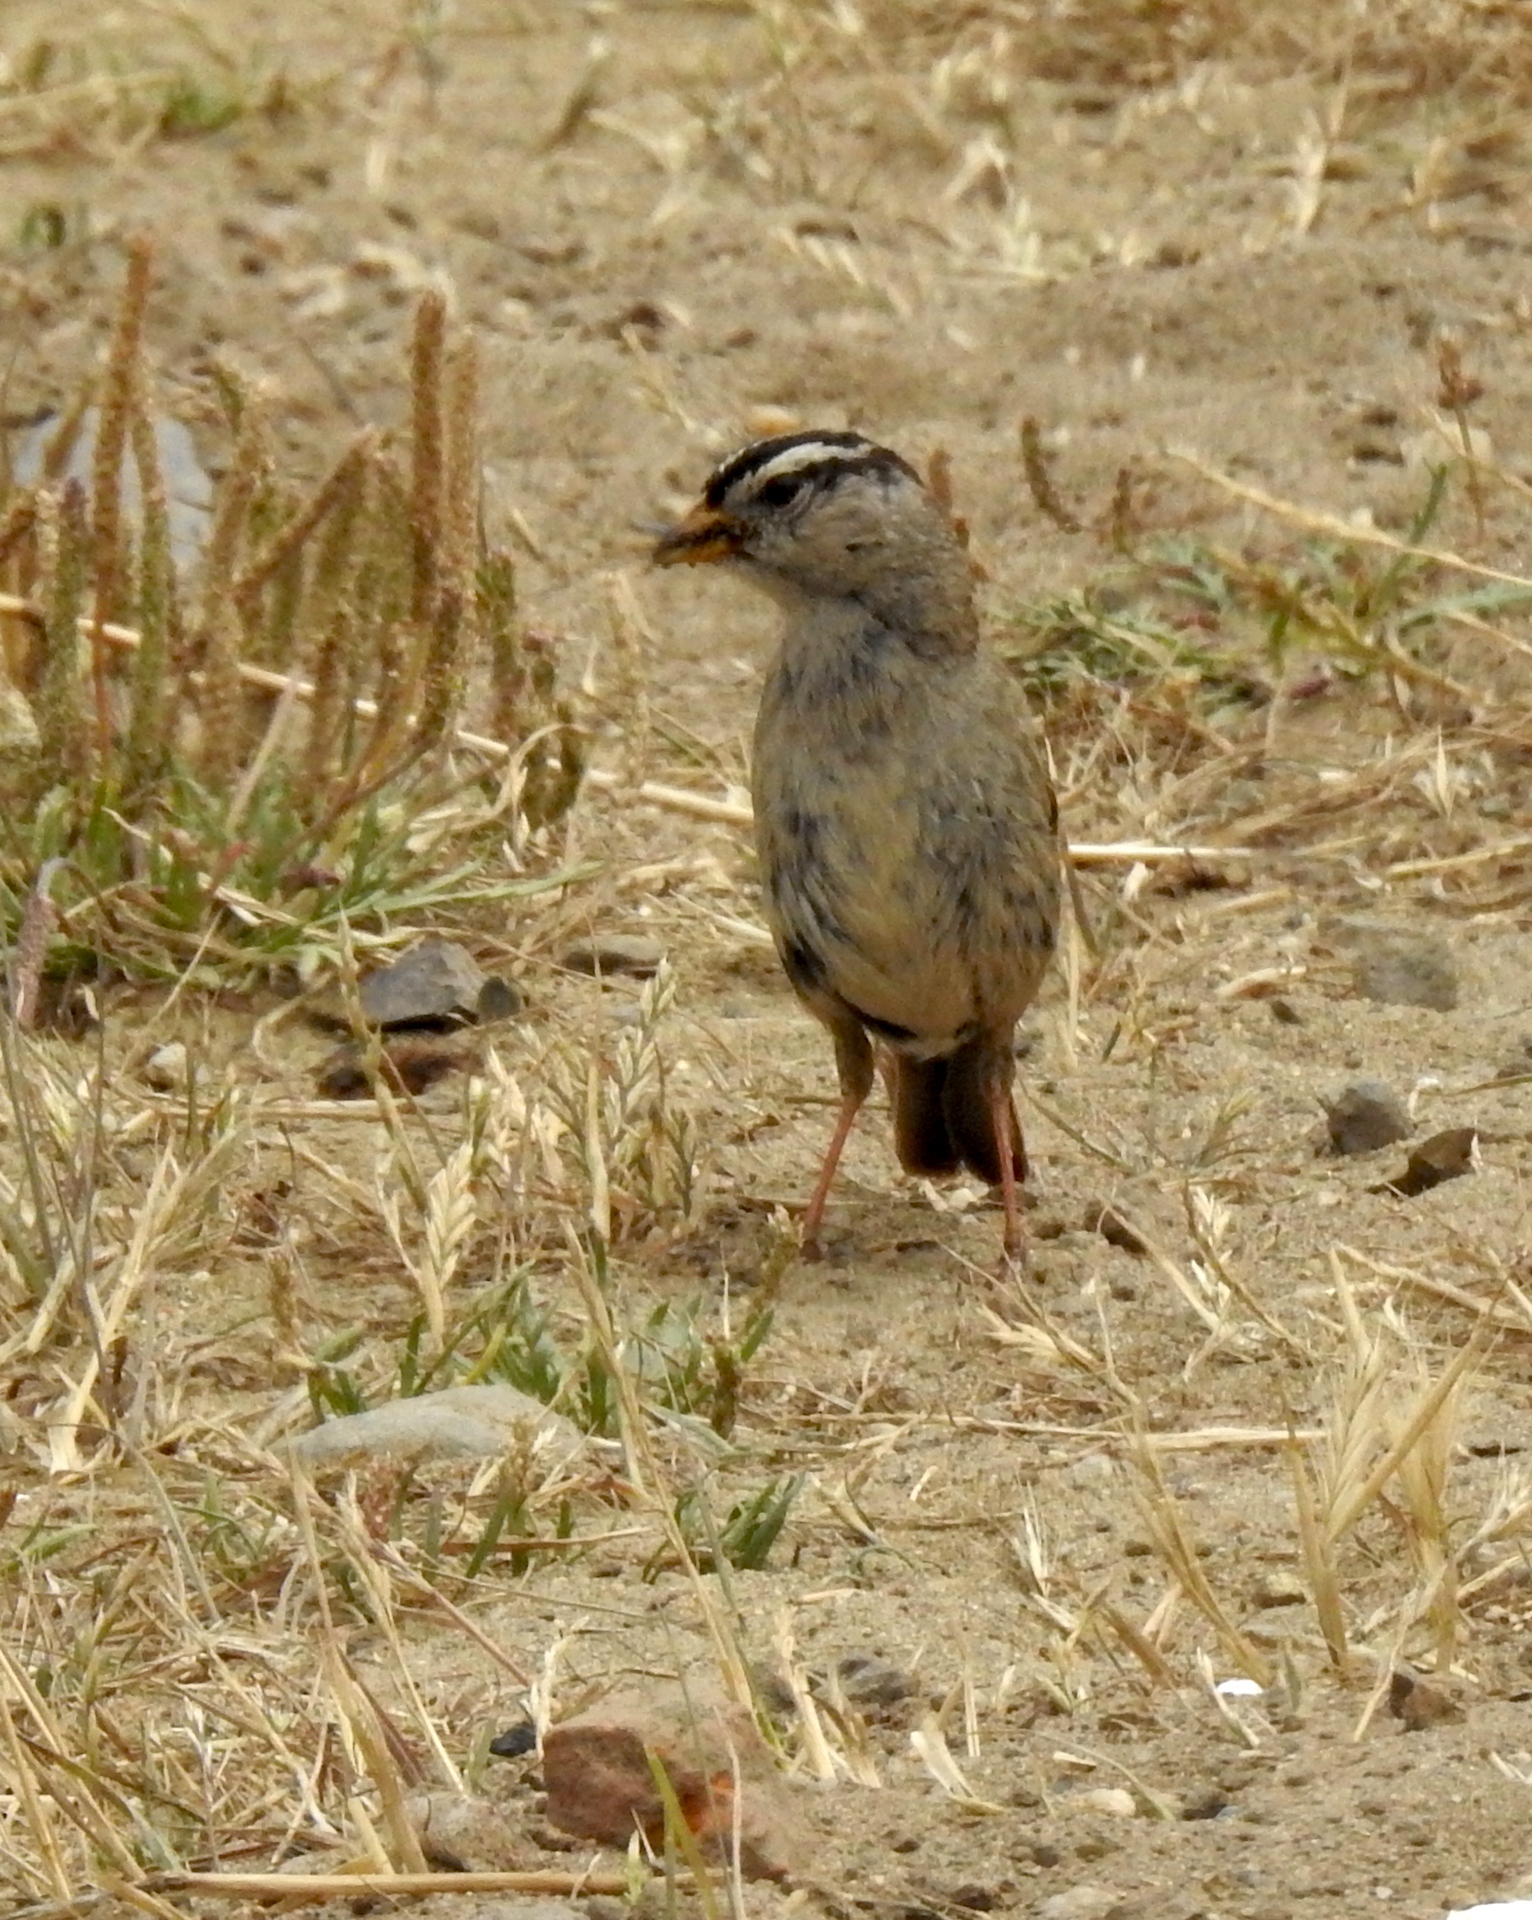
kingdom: Animalia
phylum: Chordata
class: Aves
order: Passeriformes
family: Passerellidae
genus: Zonotrichia
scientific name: Zonotrichia leucophrys
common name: White-crowned sparrow
